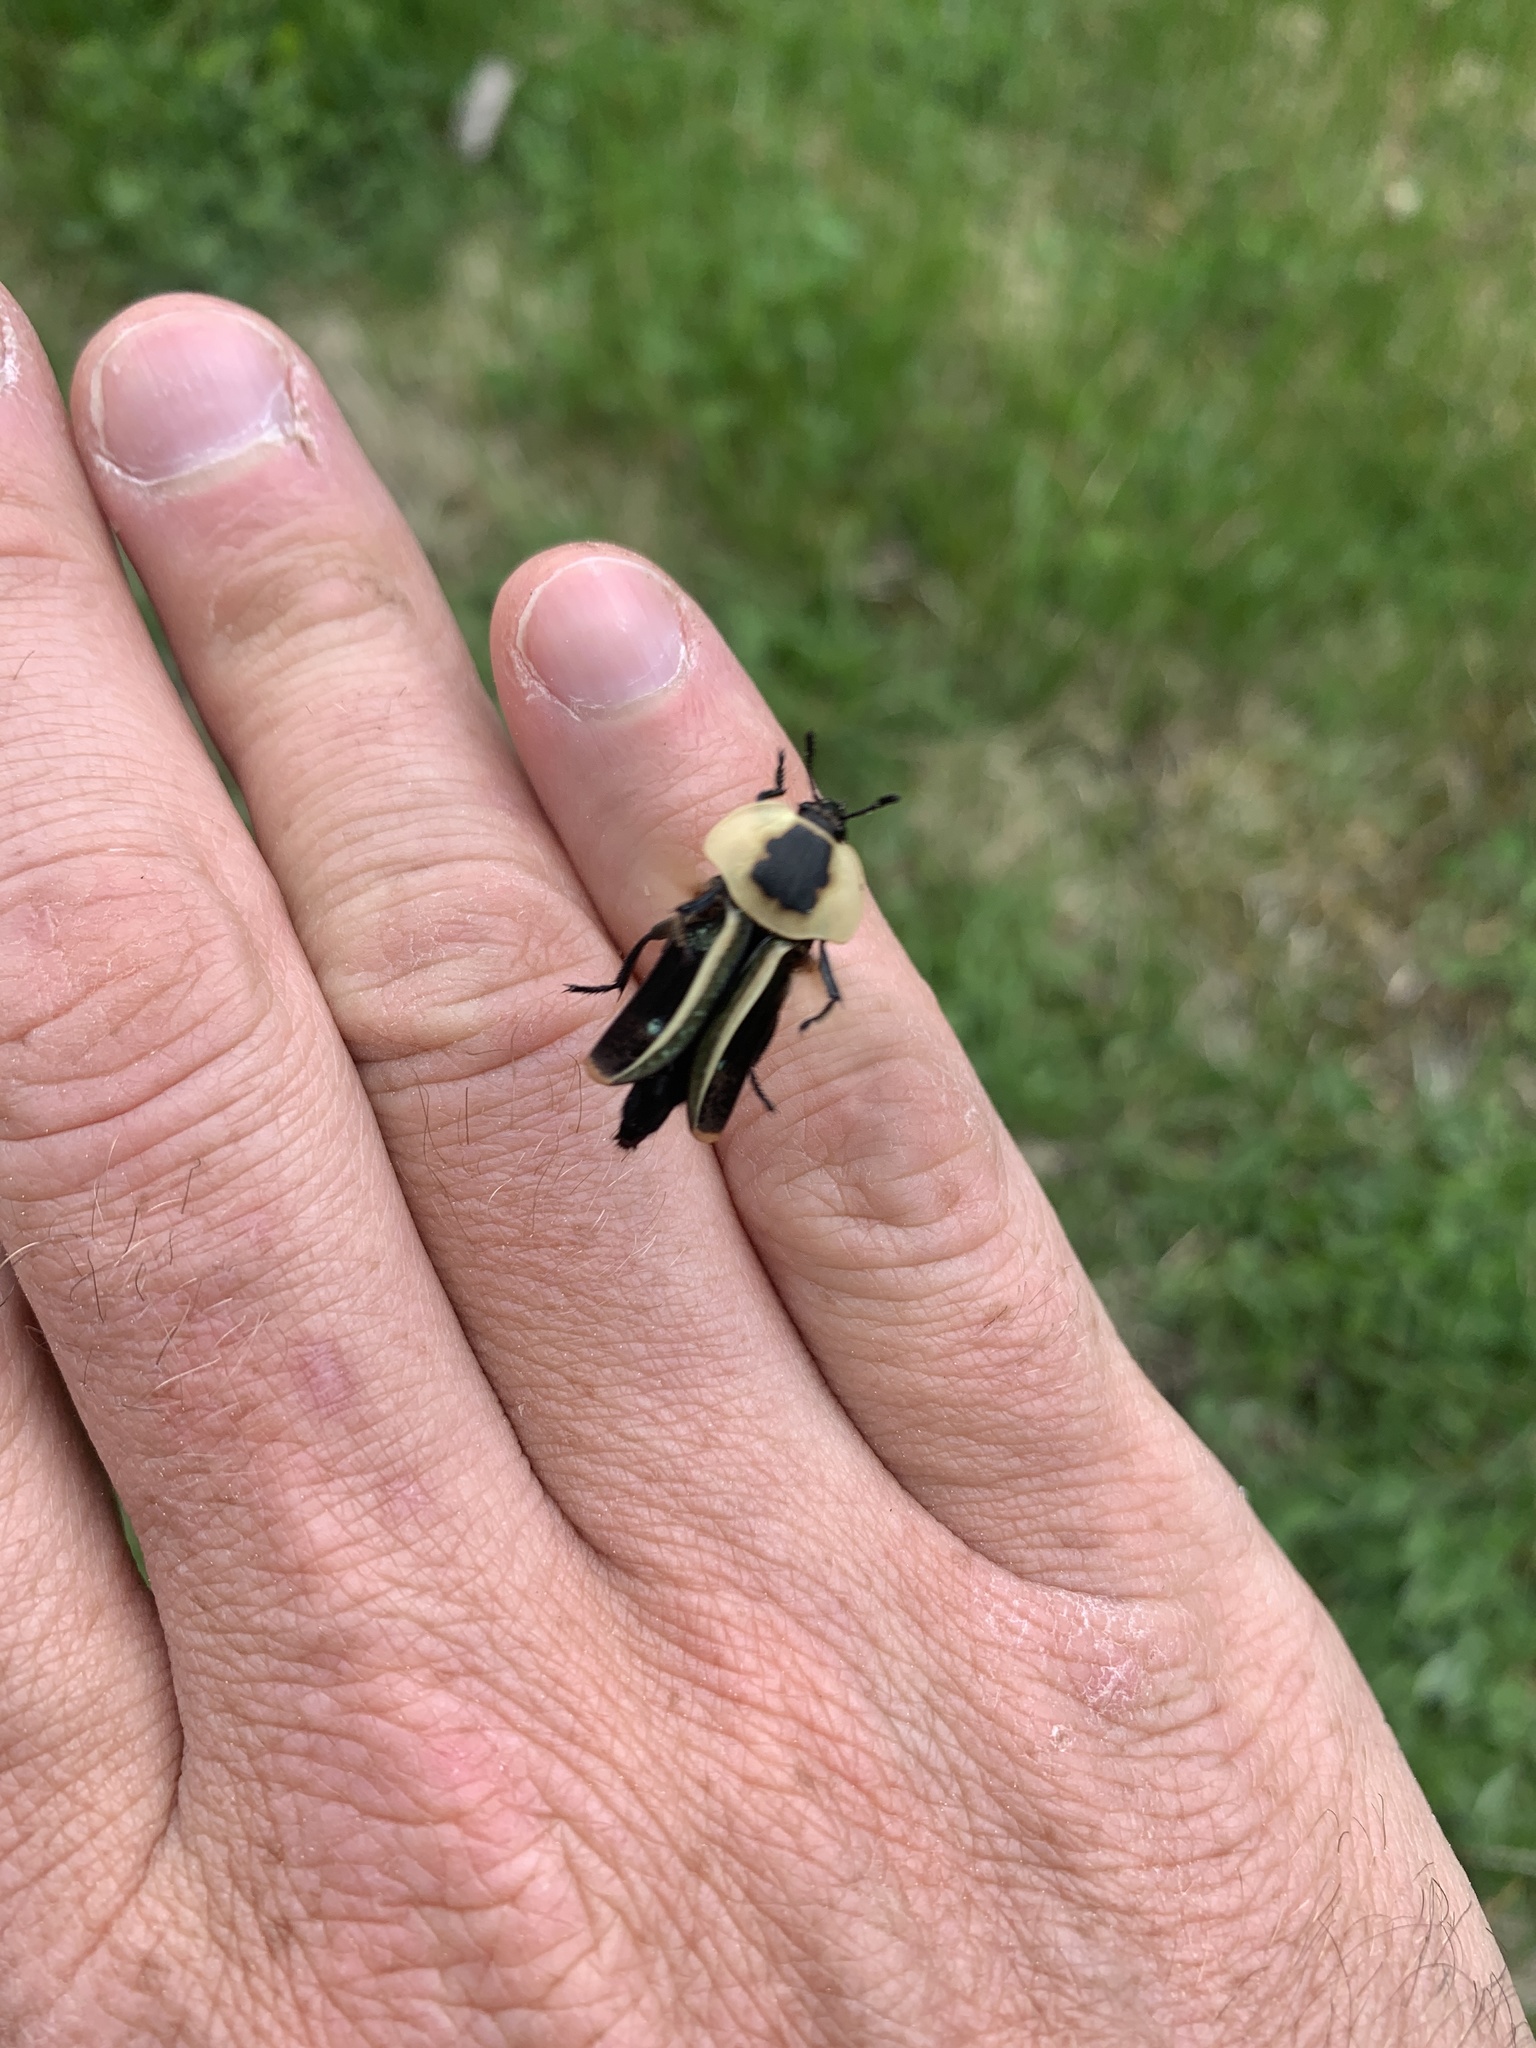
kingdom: Animalia
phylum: Arthropoda
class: Insecta
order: Coleoptera
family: Staphylinidae
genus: Necrophila
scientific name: Necrophila americana
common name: American carrion beetle
